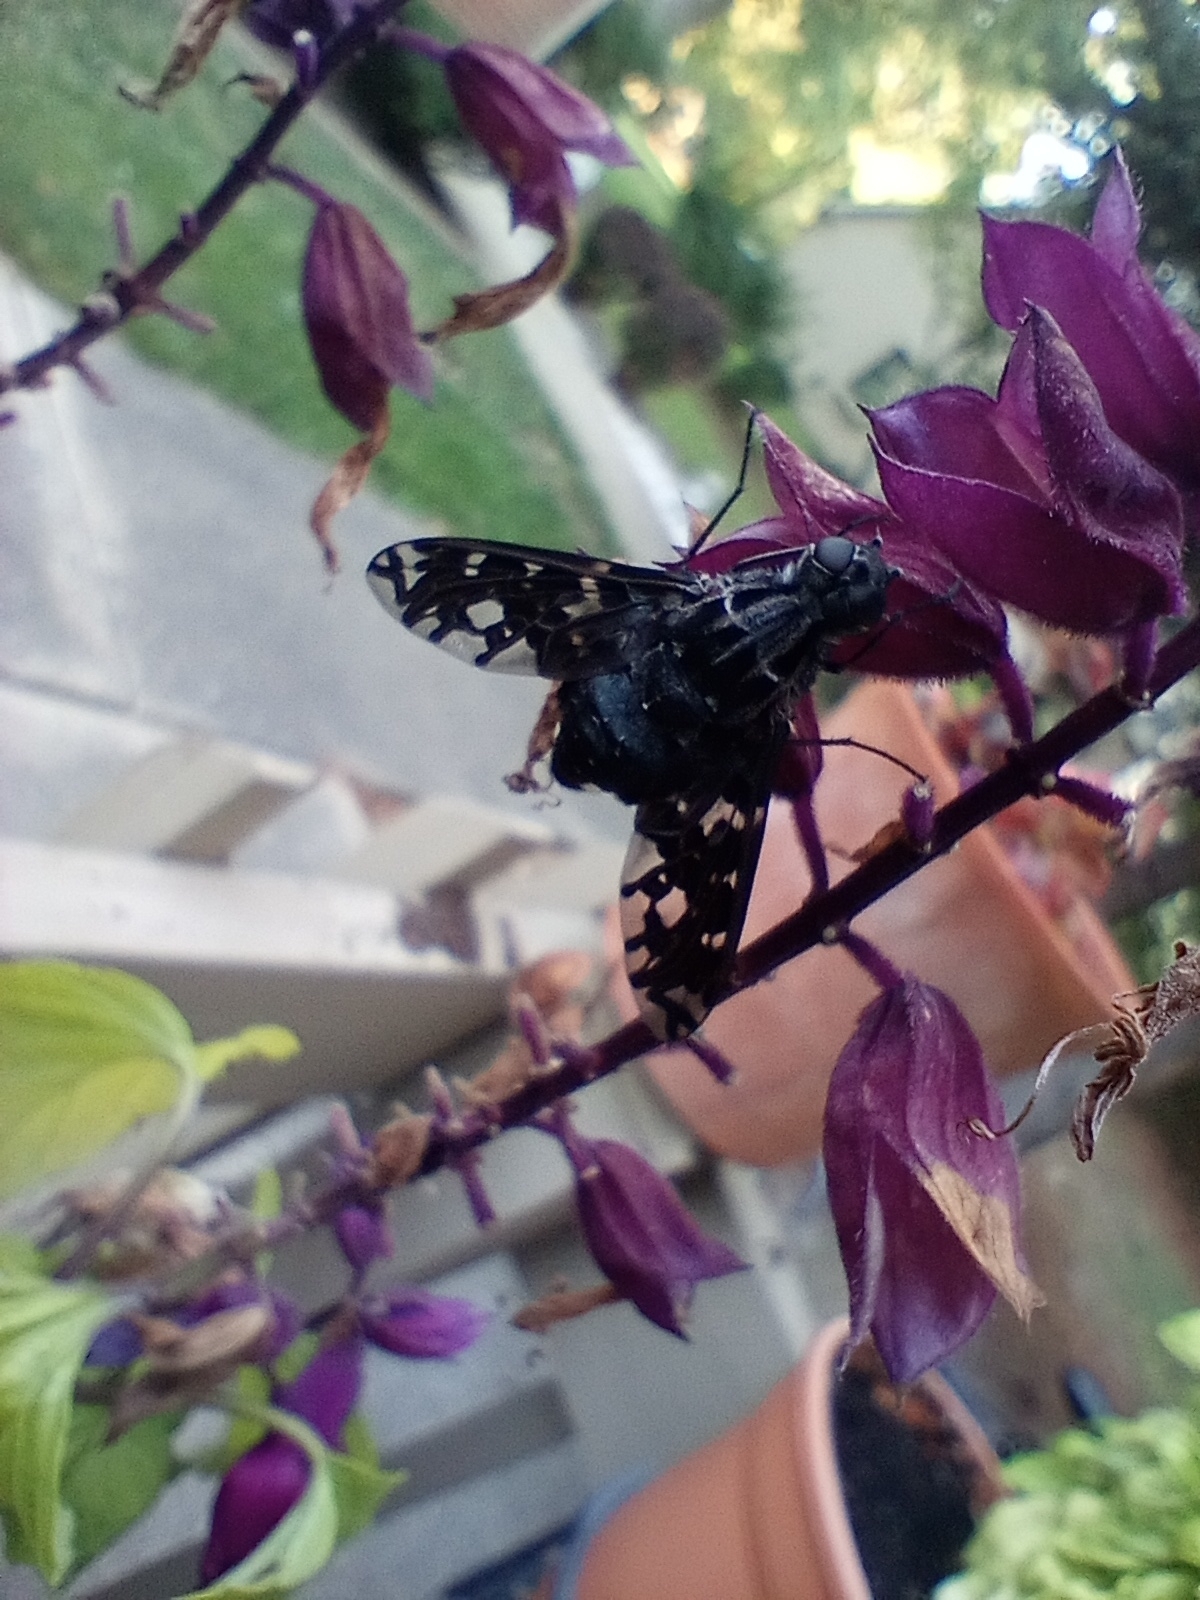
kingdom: Animalia
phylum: Arthropoda
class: Insecta
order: Diptera
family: Bombyliidae
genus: Xenox
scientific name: Xenox tigrinus
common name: Tiger bee fly
